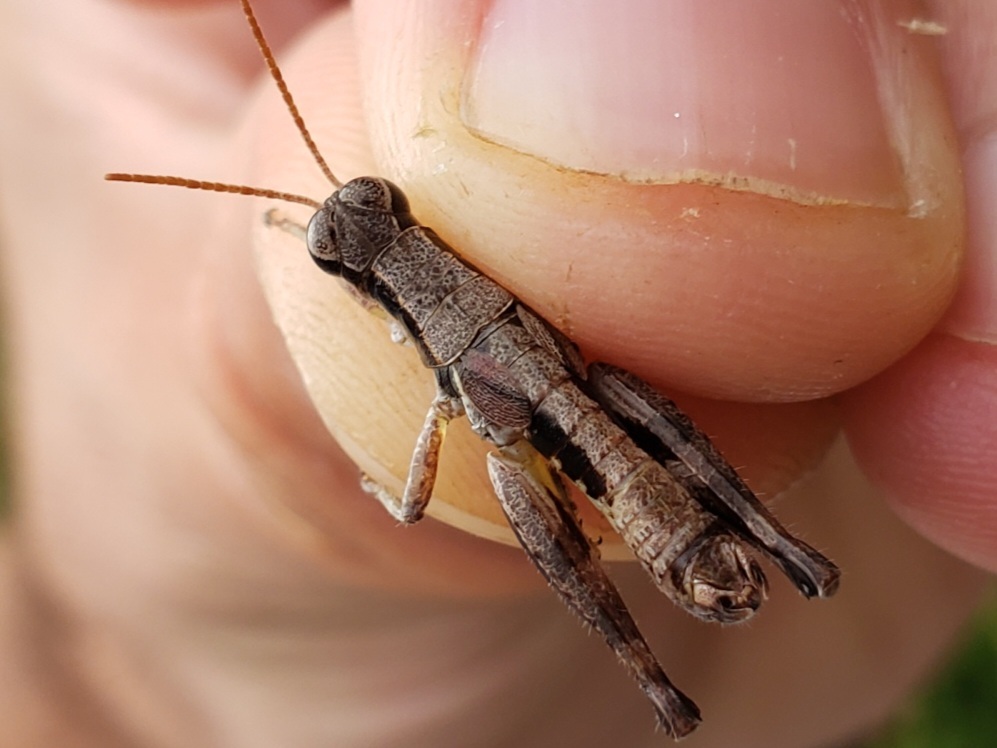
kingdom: Animalia
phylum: Arthropoda
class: Insecta
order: Orthoptera
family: Acrididae
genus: Melanoplus
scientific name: Melanoplus nanciae
